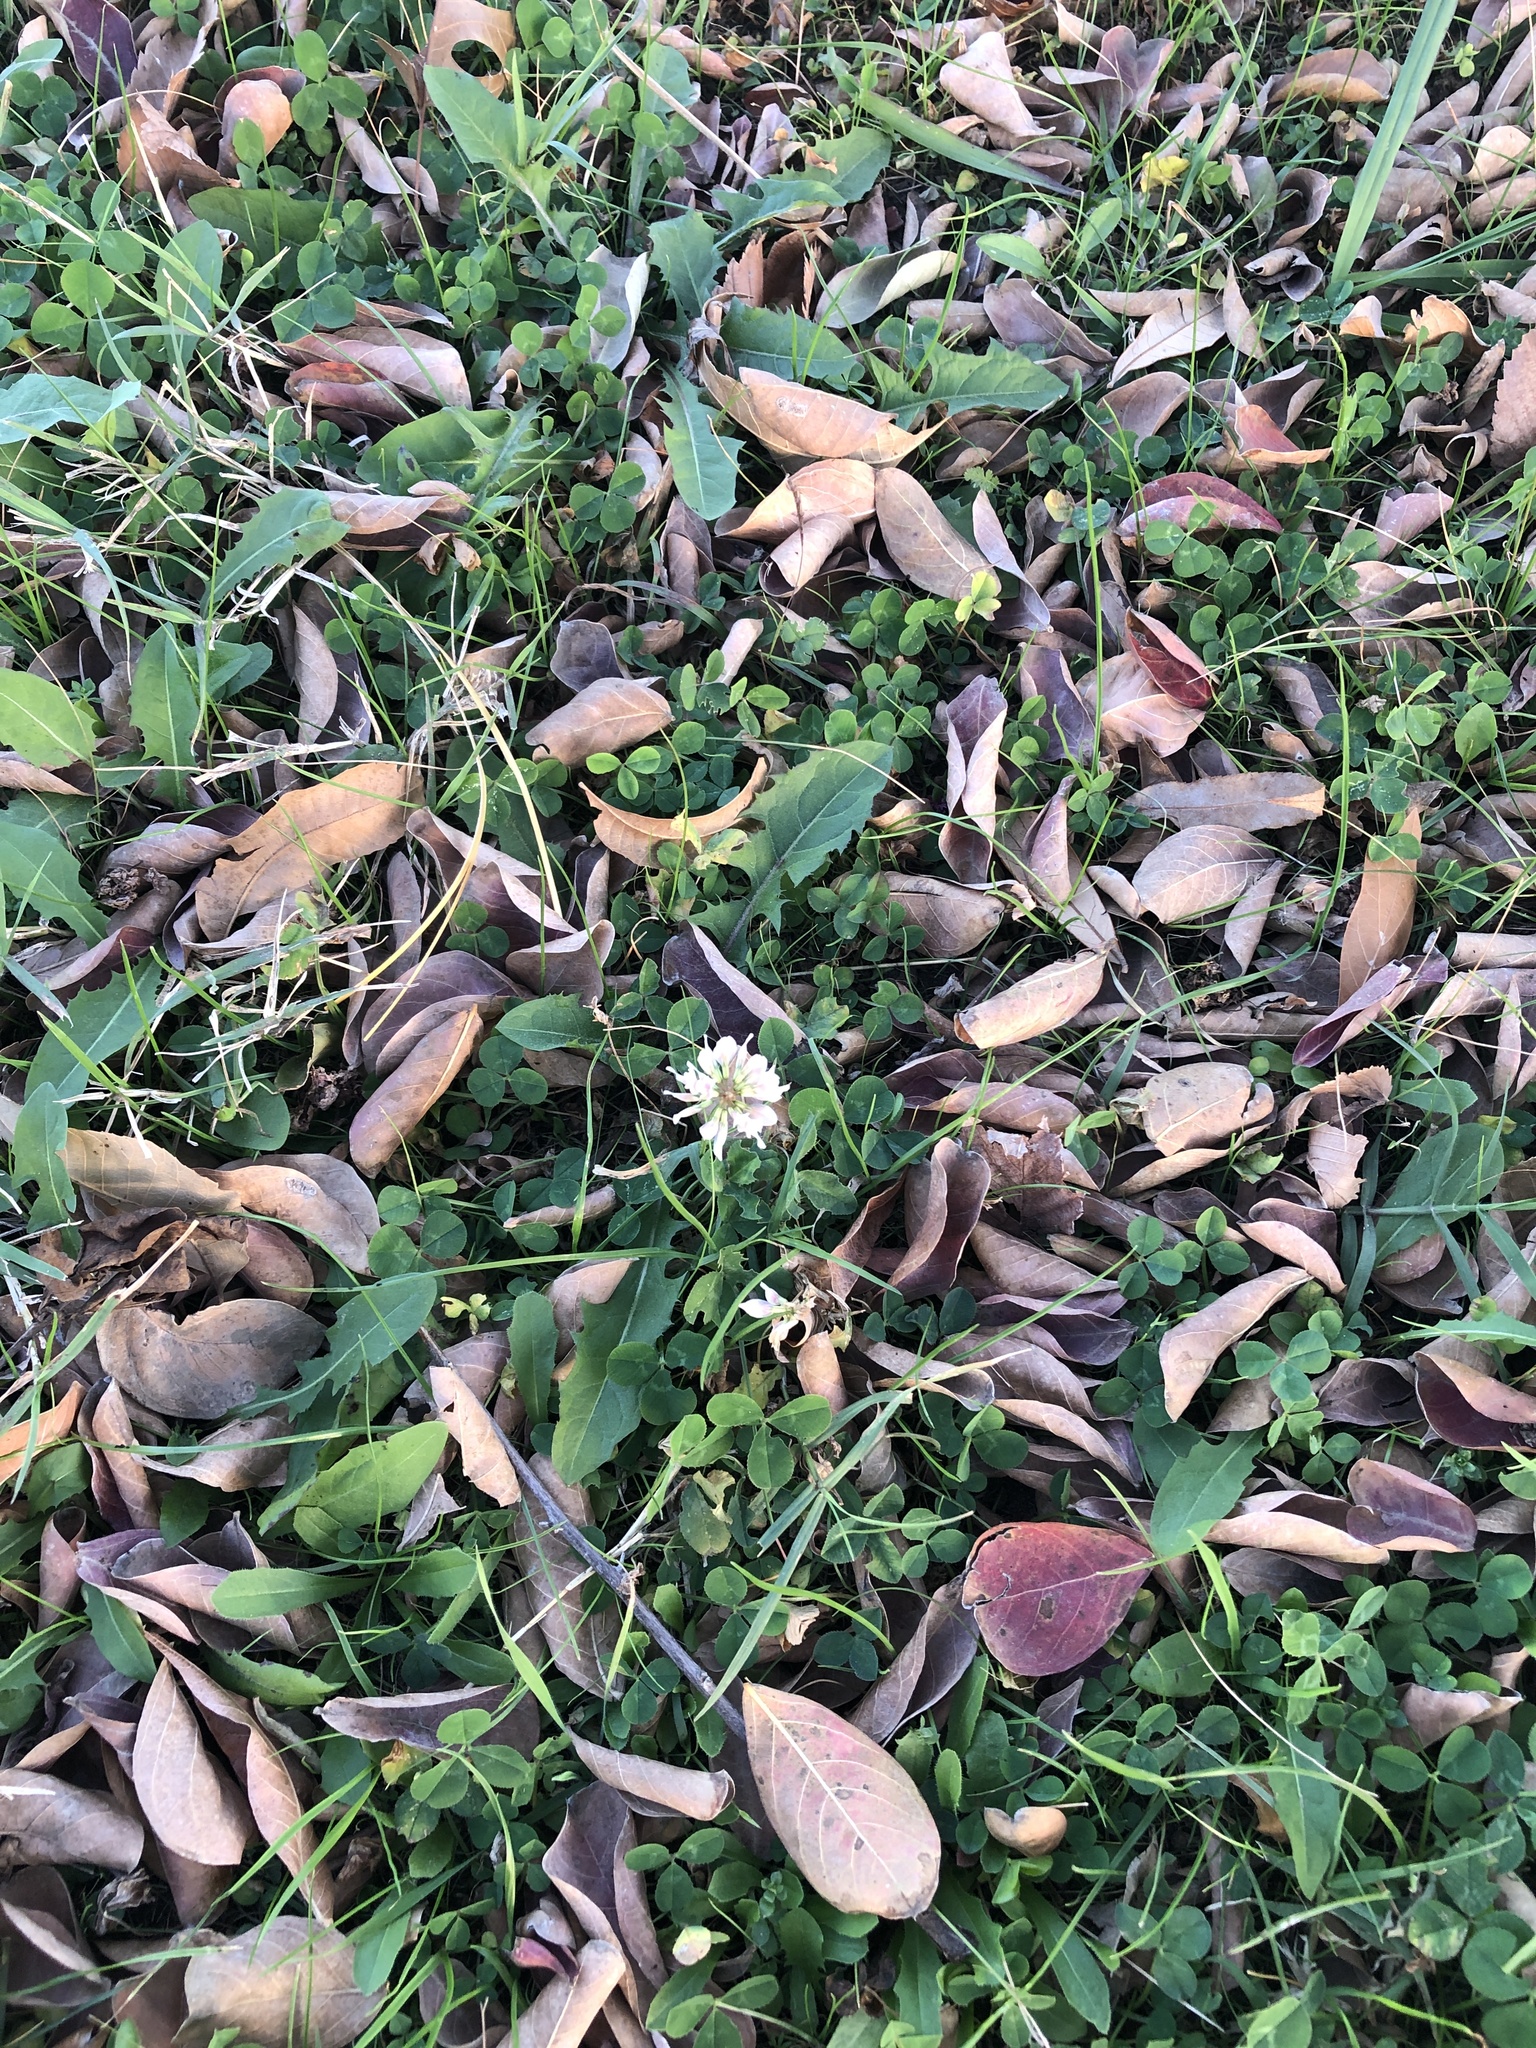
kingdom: Plantae
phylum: Tracheophyta
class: Magnoliopsida
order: Fabales
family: Fabaceae
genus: Trifolium
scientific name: Trifolium repens
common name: White clover
